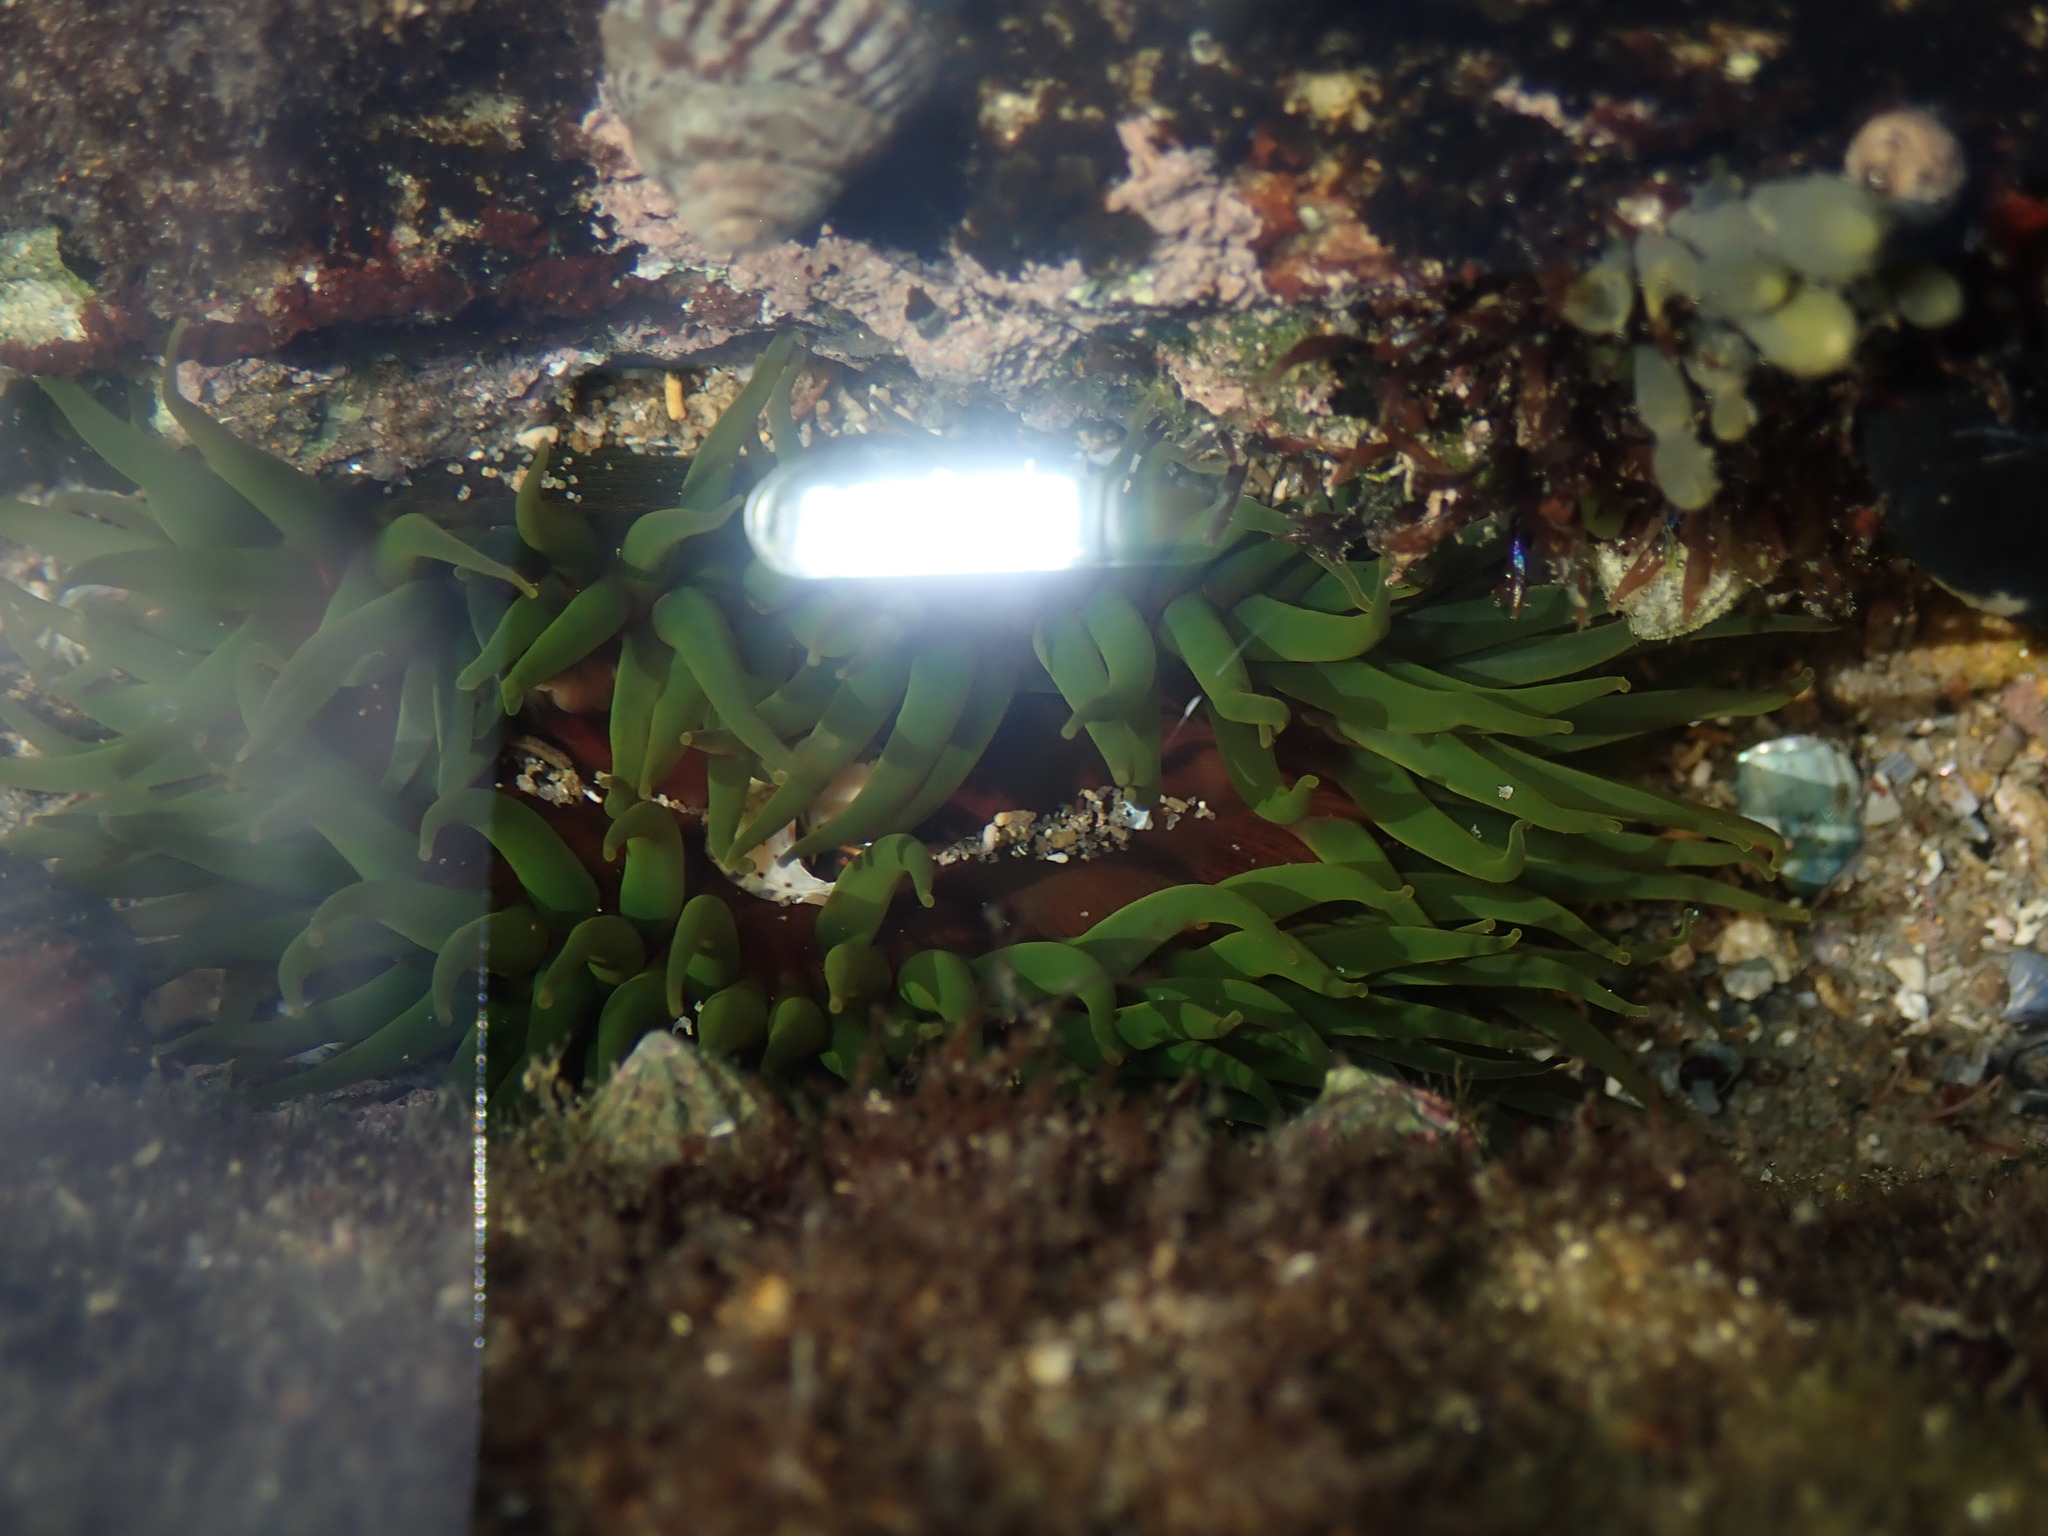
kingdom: Animalia
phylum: Cnidaria
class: Anthozoa
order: Actiniaria
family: Actiniidae
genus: Aulactinia
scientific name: Aulactinia veratra
